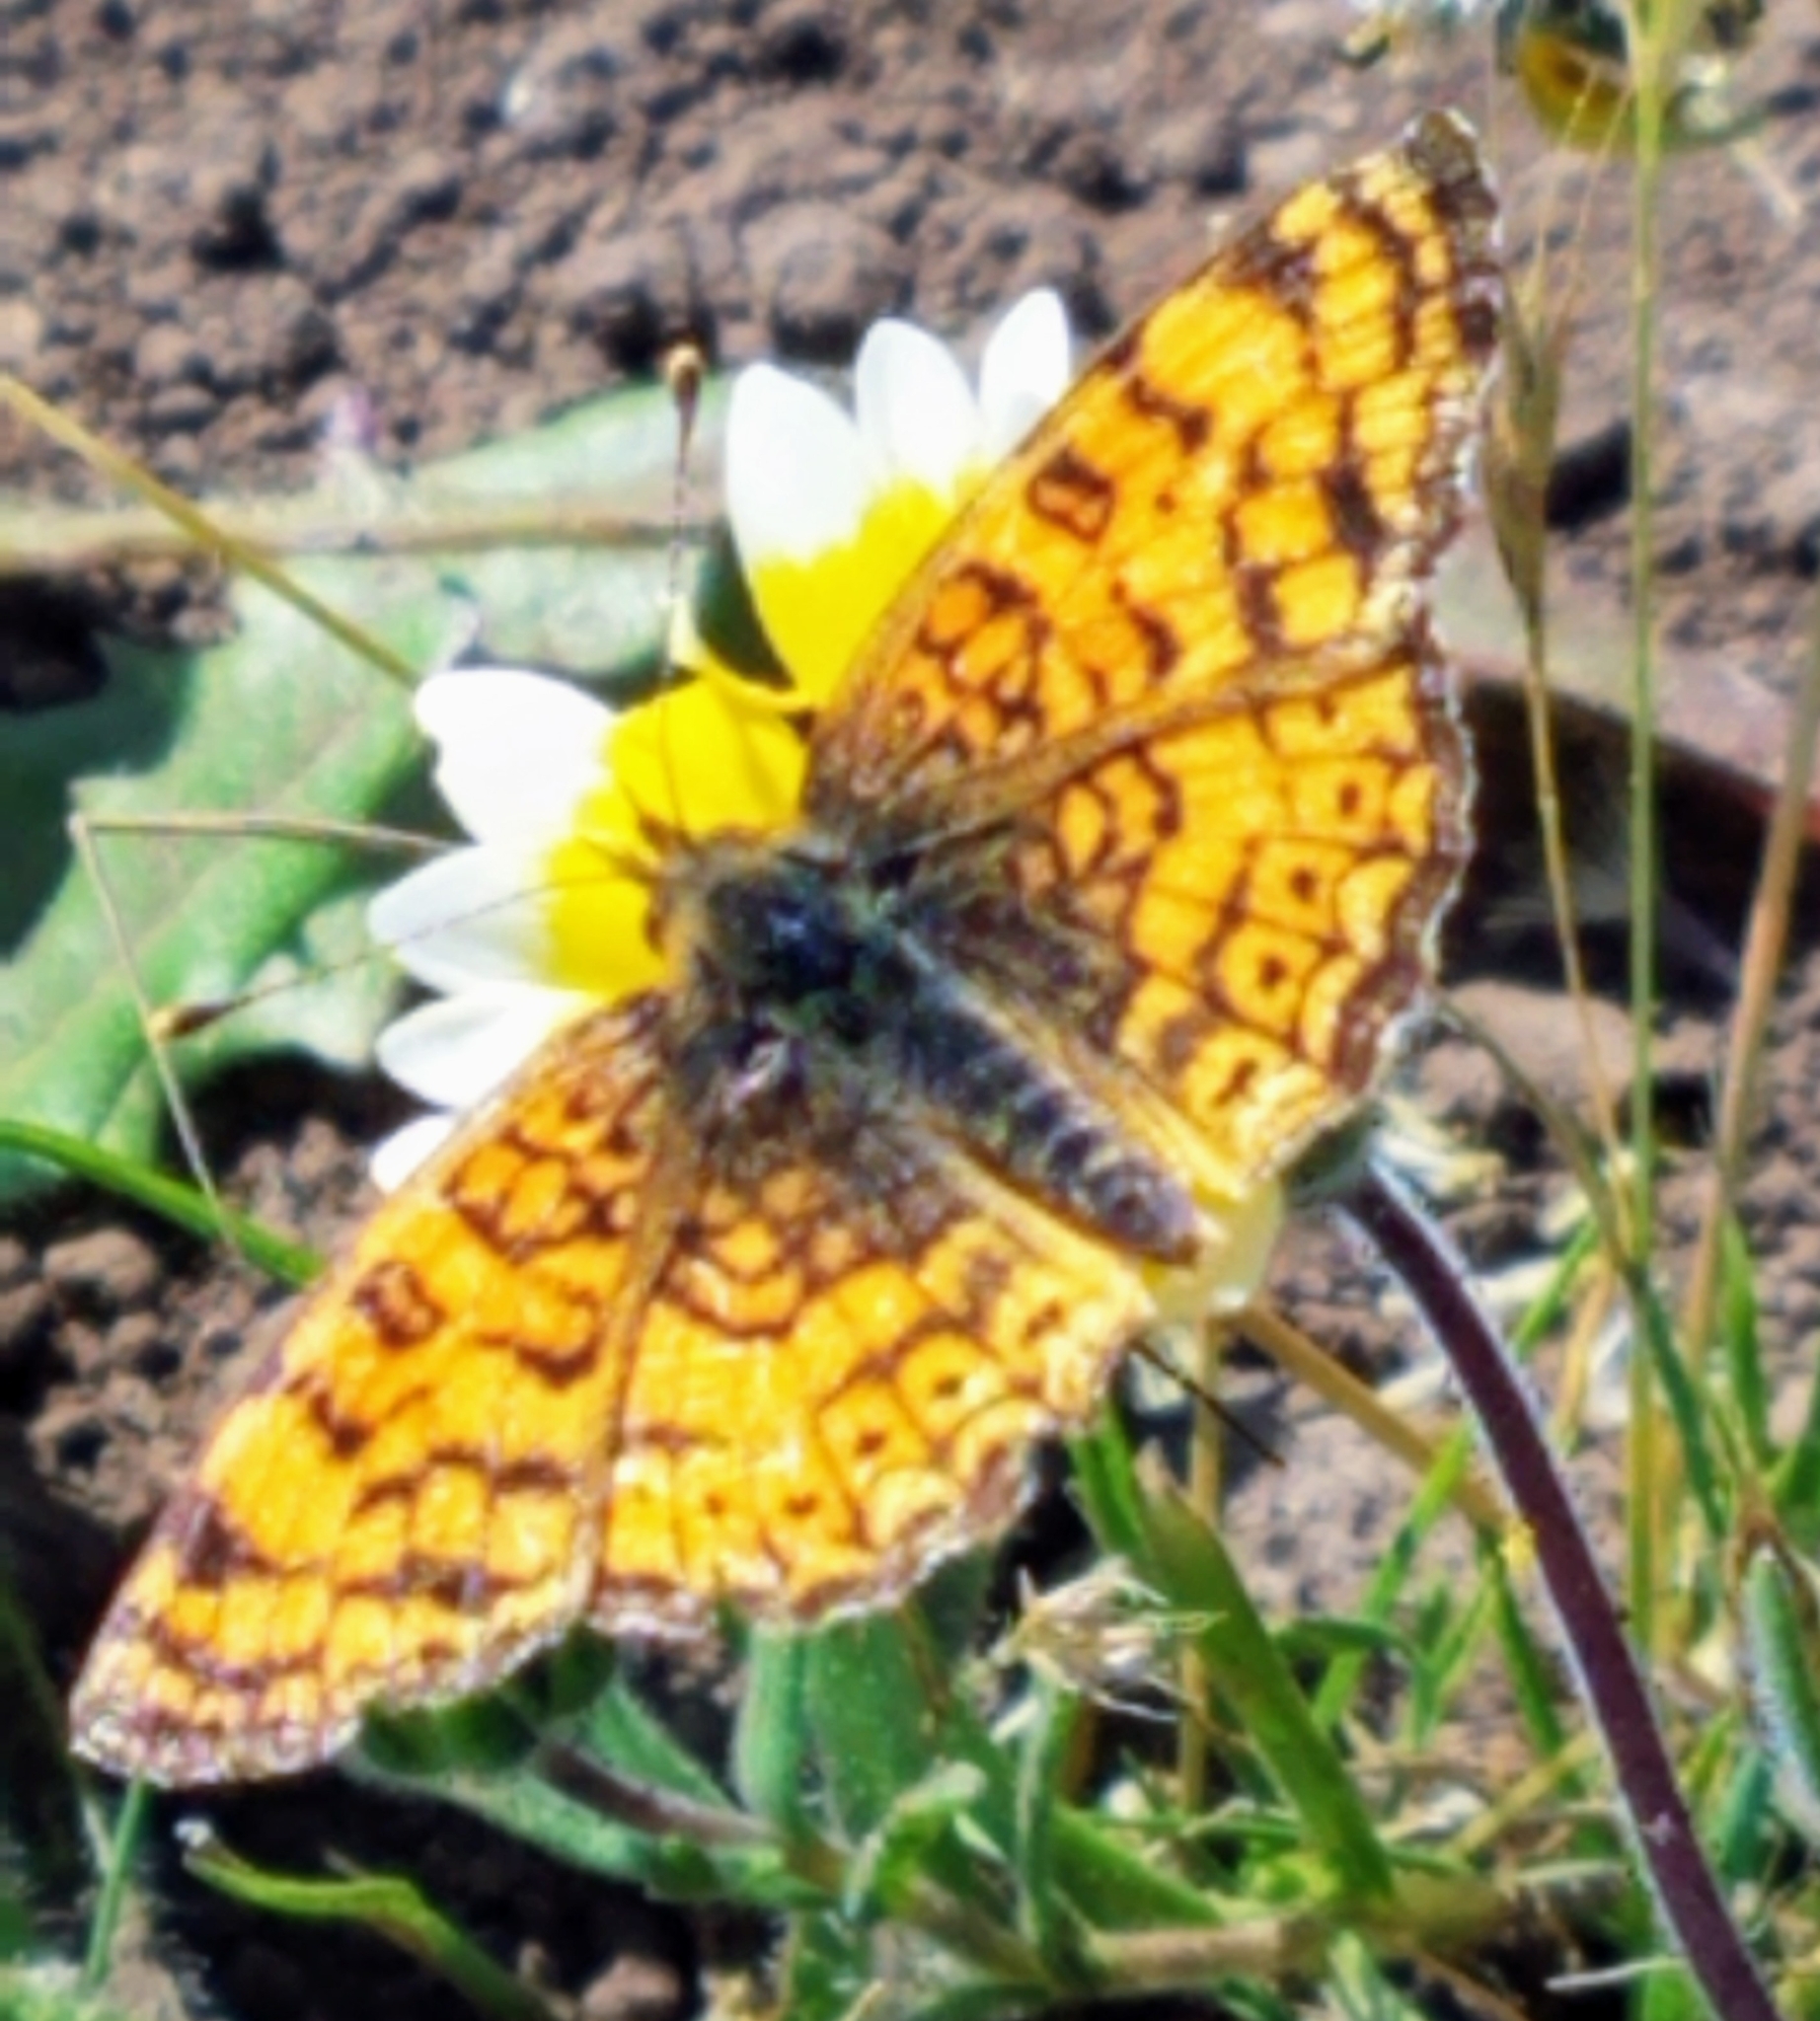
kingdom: Animalia
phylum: Arthropoda
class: Insecta
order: Lepidoptera
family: Nymphalidae
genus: Eresia
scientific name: Eresia aveyrona
